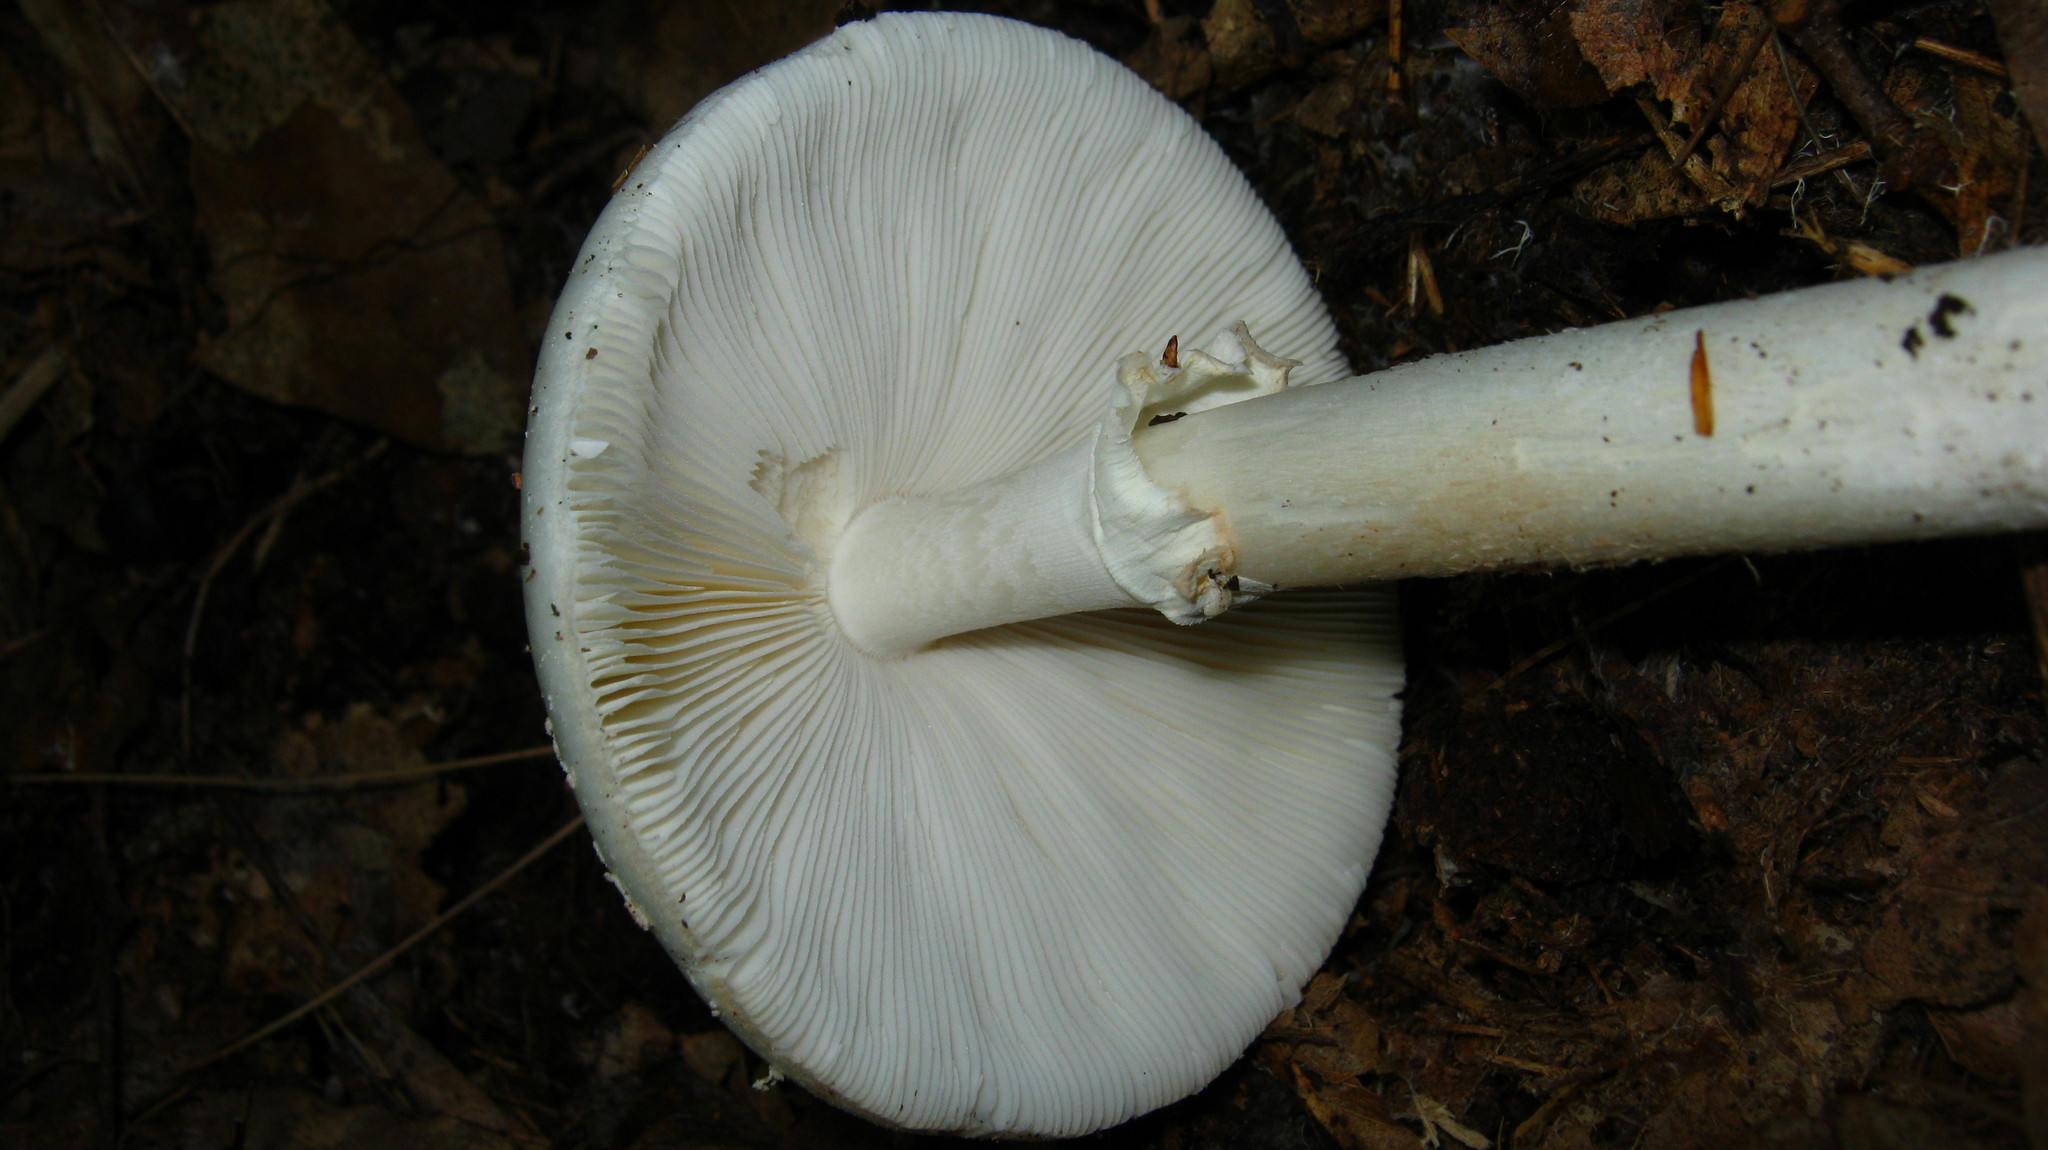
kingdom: Fungi
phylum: Basidiomycota
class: Agaricomycetes
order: Agaricales
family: Amanitaceae
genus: Amanita
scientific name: Amanita brunnescens
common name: Brown american star-footed amanita
